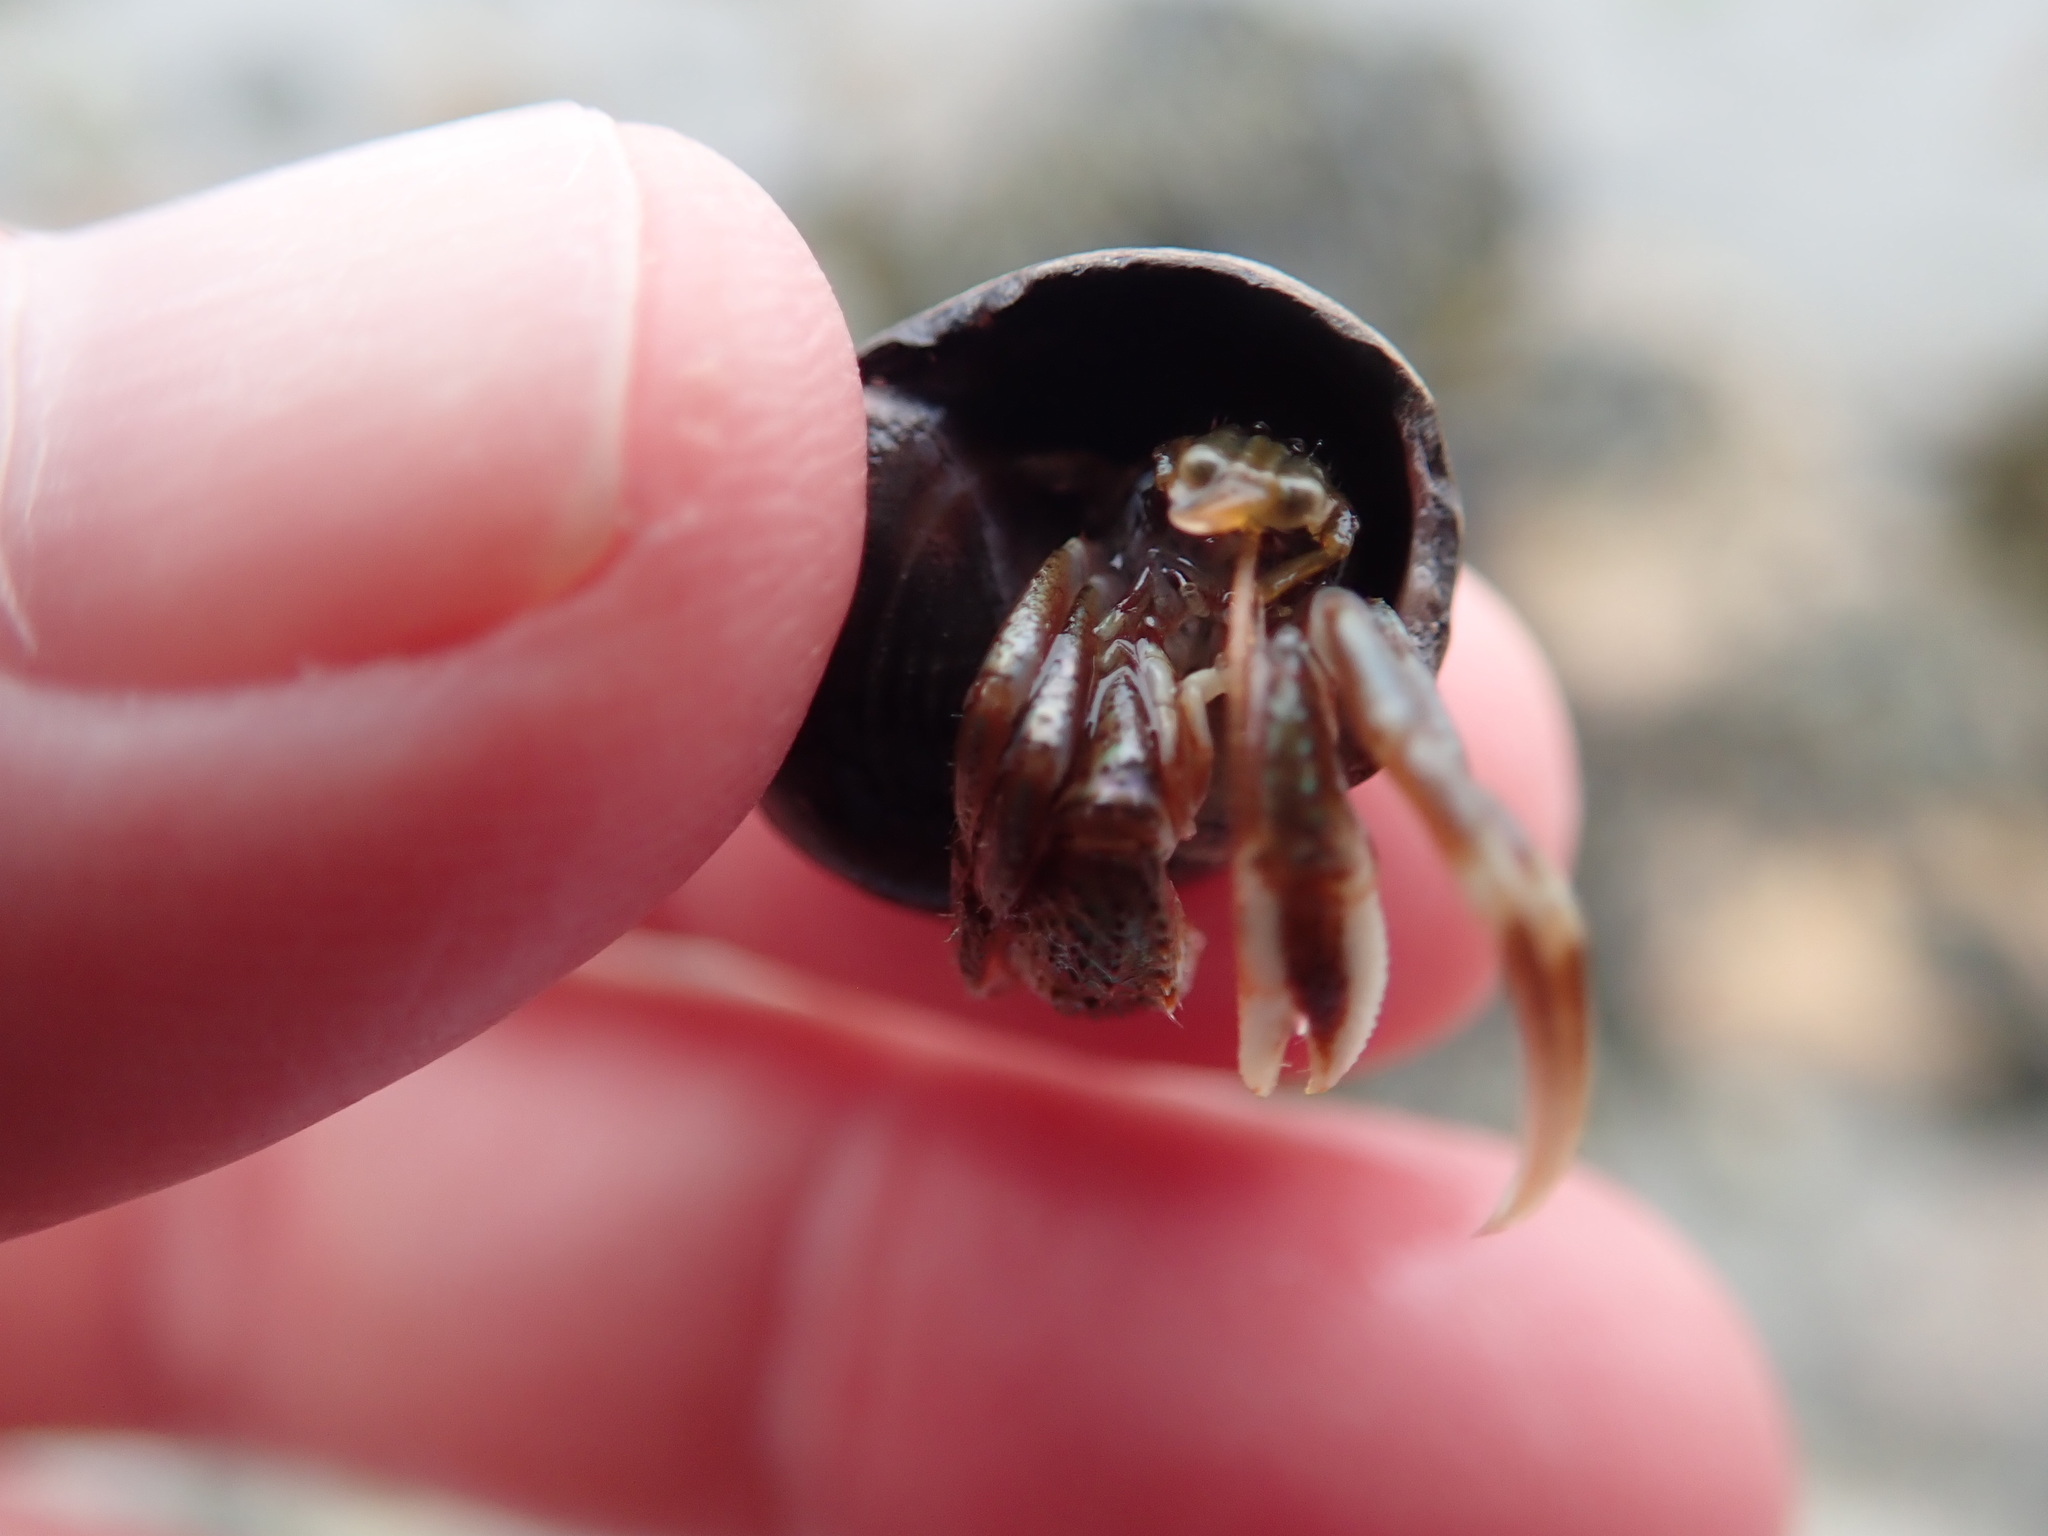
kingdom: Animalia
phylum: Arthropoda
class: Malacostraca
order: Decapoda
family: Paguridae
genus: Pagurus
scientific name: Pagurus longicarpus
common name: Long-armed hermit crab
